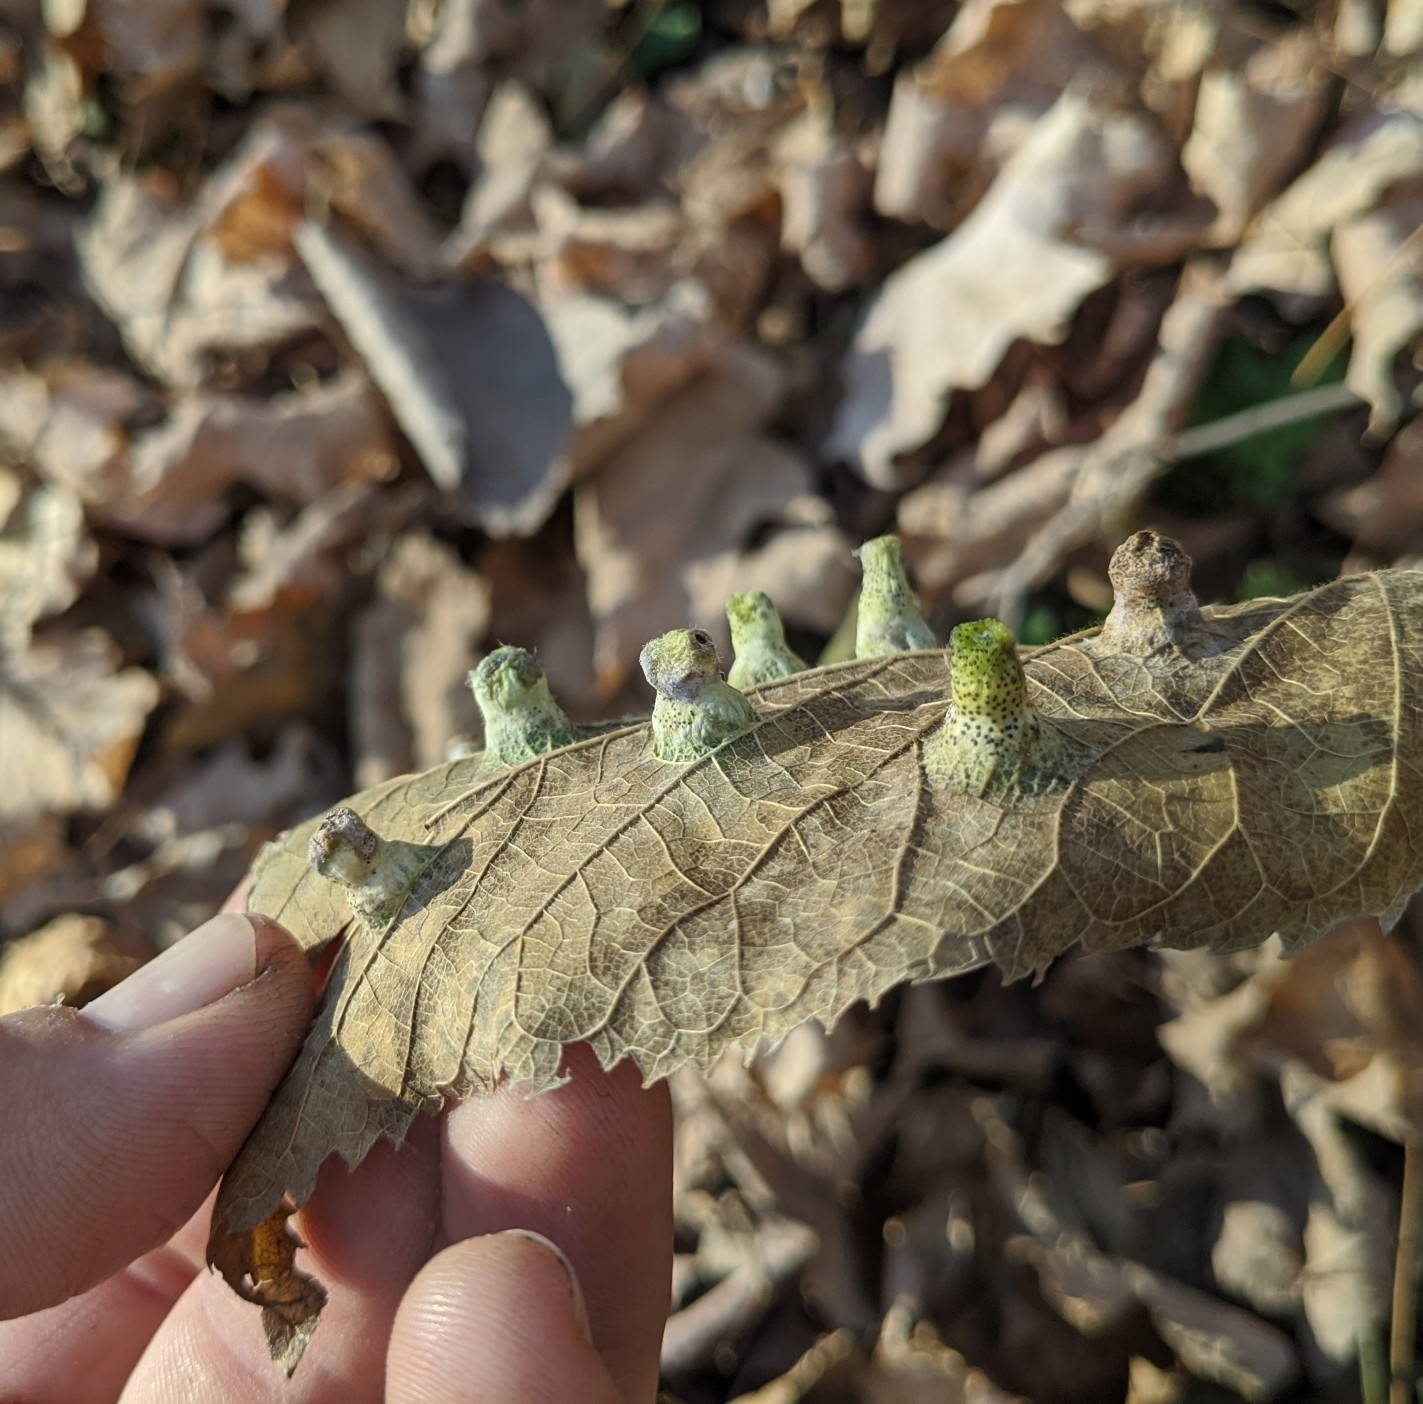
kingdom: Animalia
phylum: Arthropoda
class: Insecta
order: Hemiptera
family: Aphalaridae
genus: Pachypsylla
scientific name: Pachypsylla celtidismamma
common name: Hackberry nipplegall psyllid
